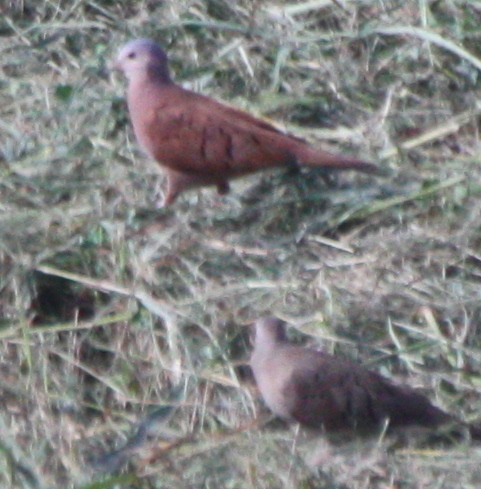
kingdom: Animalia
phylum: Chordata
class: Aves
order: Columbiformes
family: Columbidae
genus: Columbina
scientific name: Columbina talpacoti
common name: Ruddy ground dove
